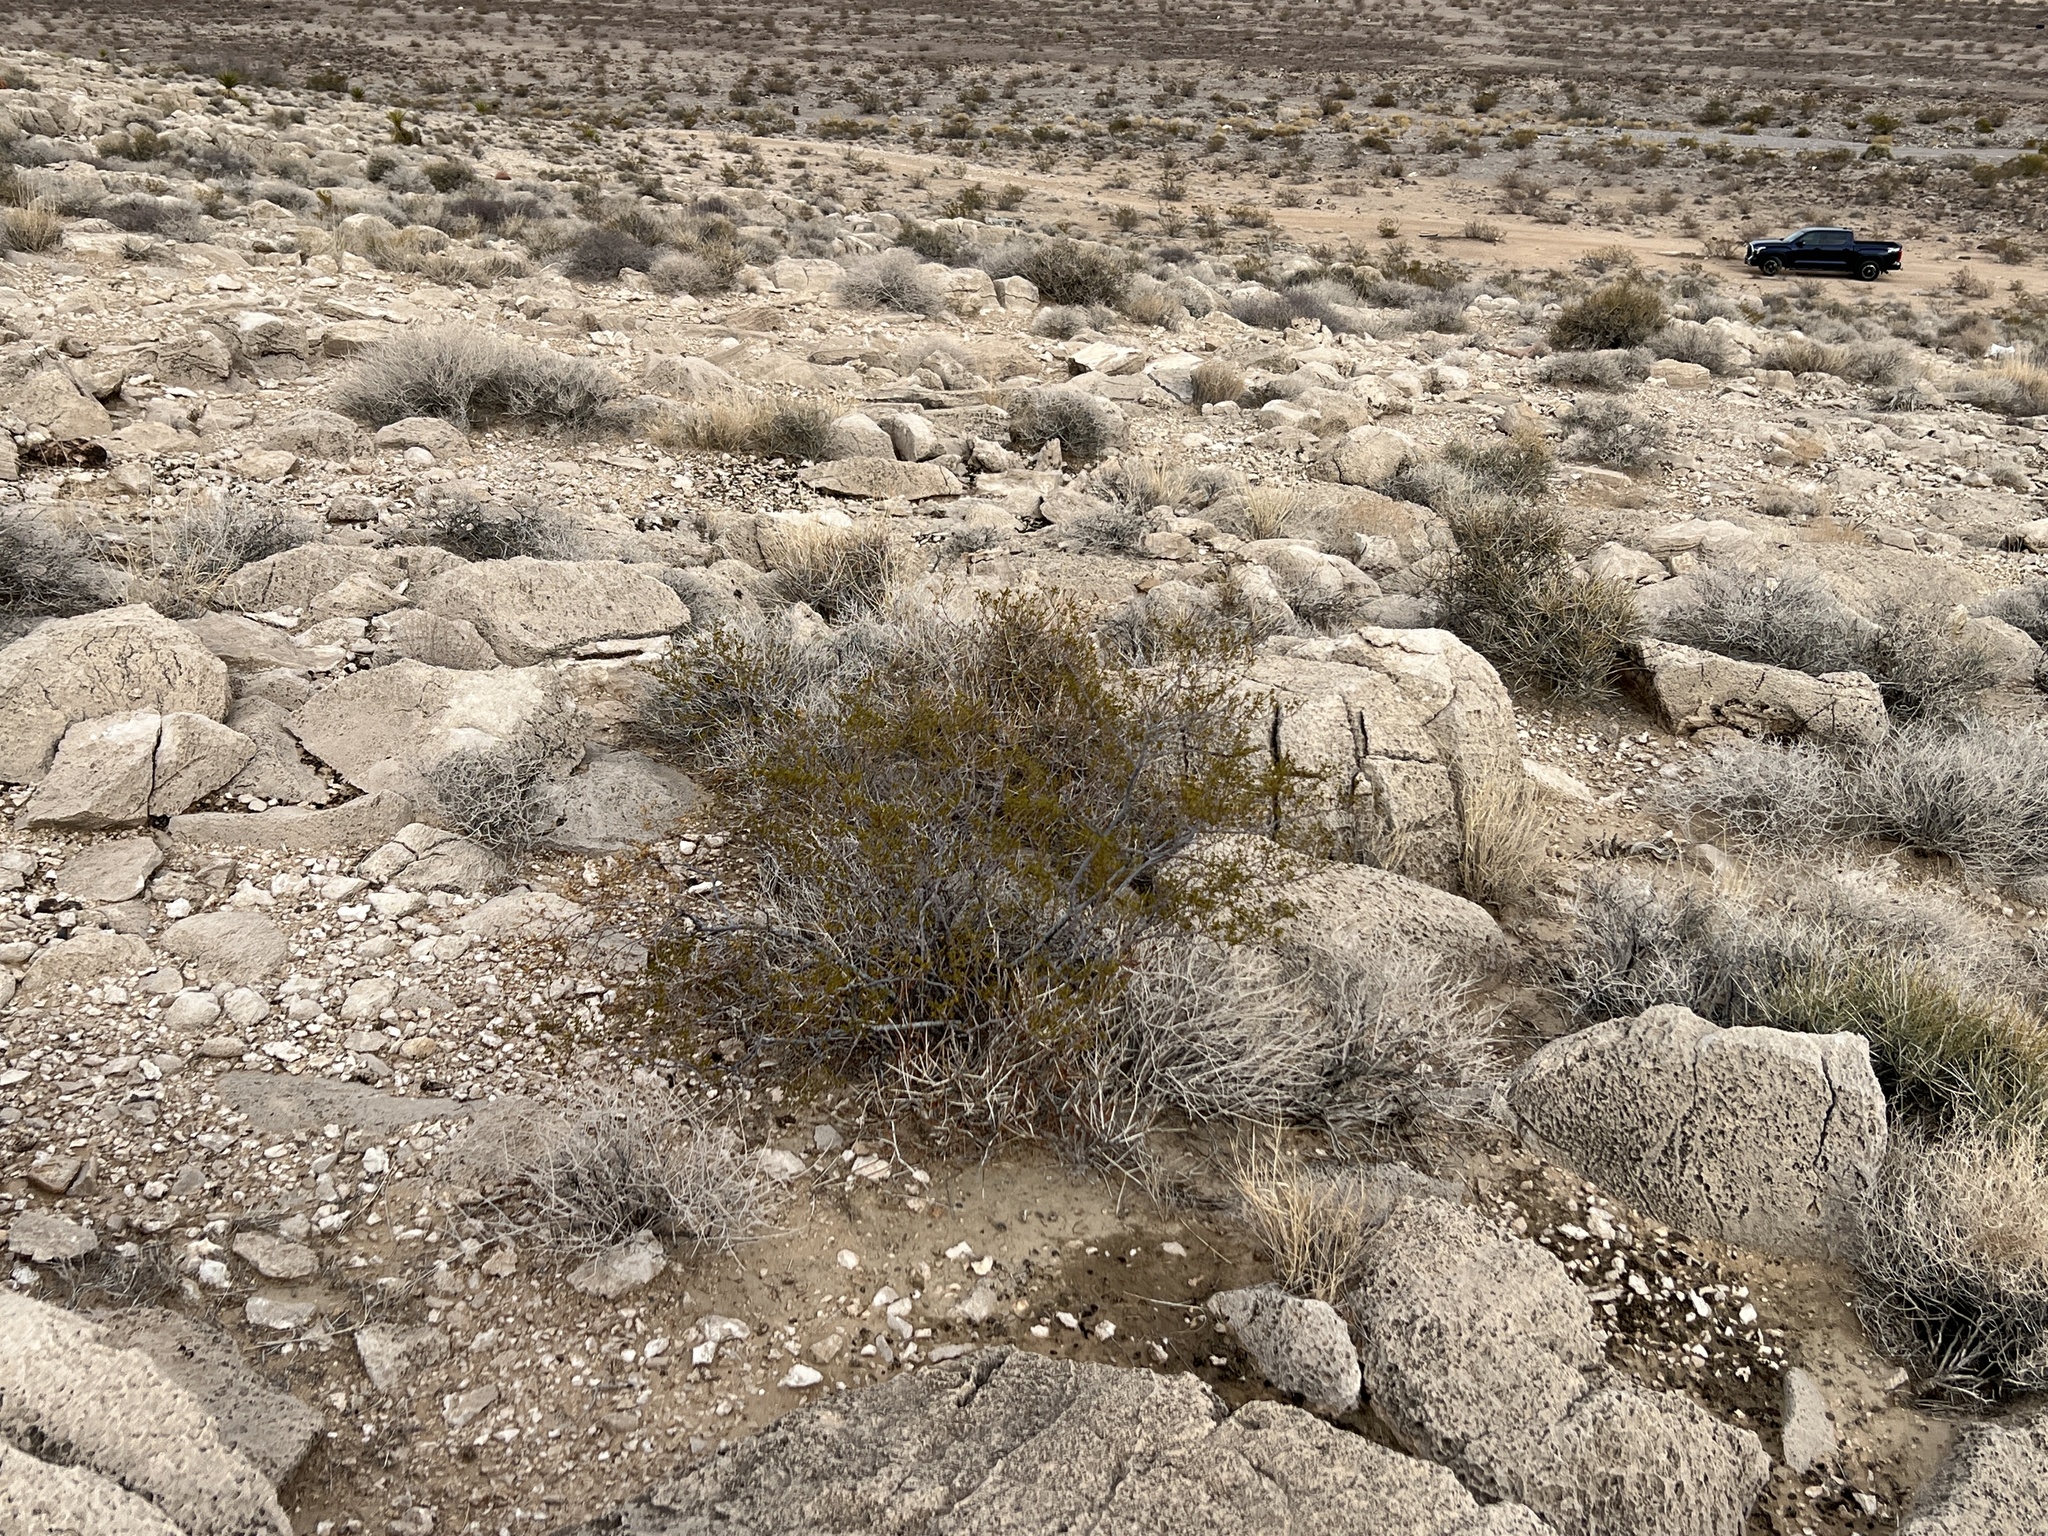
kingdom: Plantae
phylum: Tracheophyta
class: Magnoliopsida
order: Zygophyllales
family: Zygophyllaceae
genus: Larrea
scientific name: Larrea tridentata
